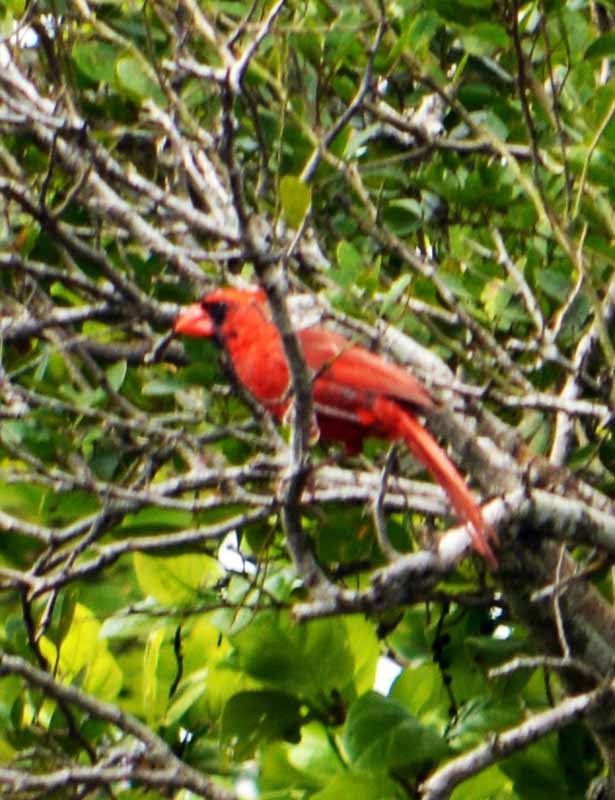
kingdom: Animalia
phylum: Chordata
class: Aves
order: Passeriformes
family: Cardinalidae
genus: Cardinalis
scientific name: Cardinalis cardinalis
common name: Northern cardinal
